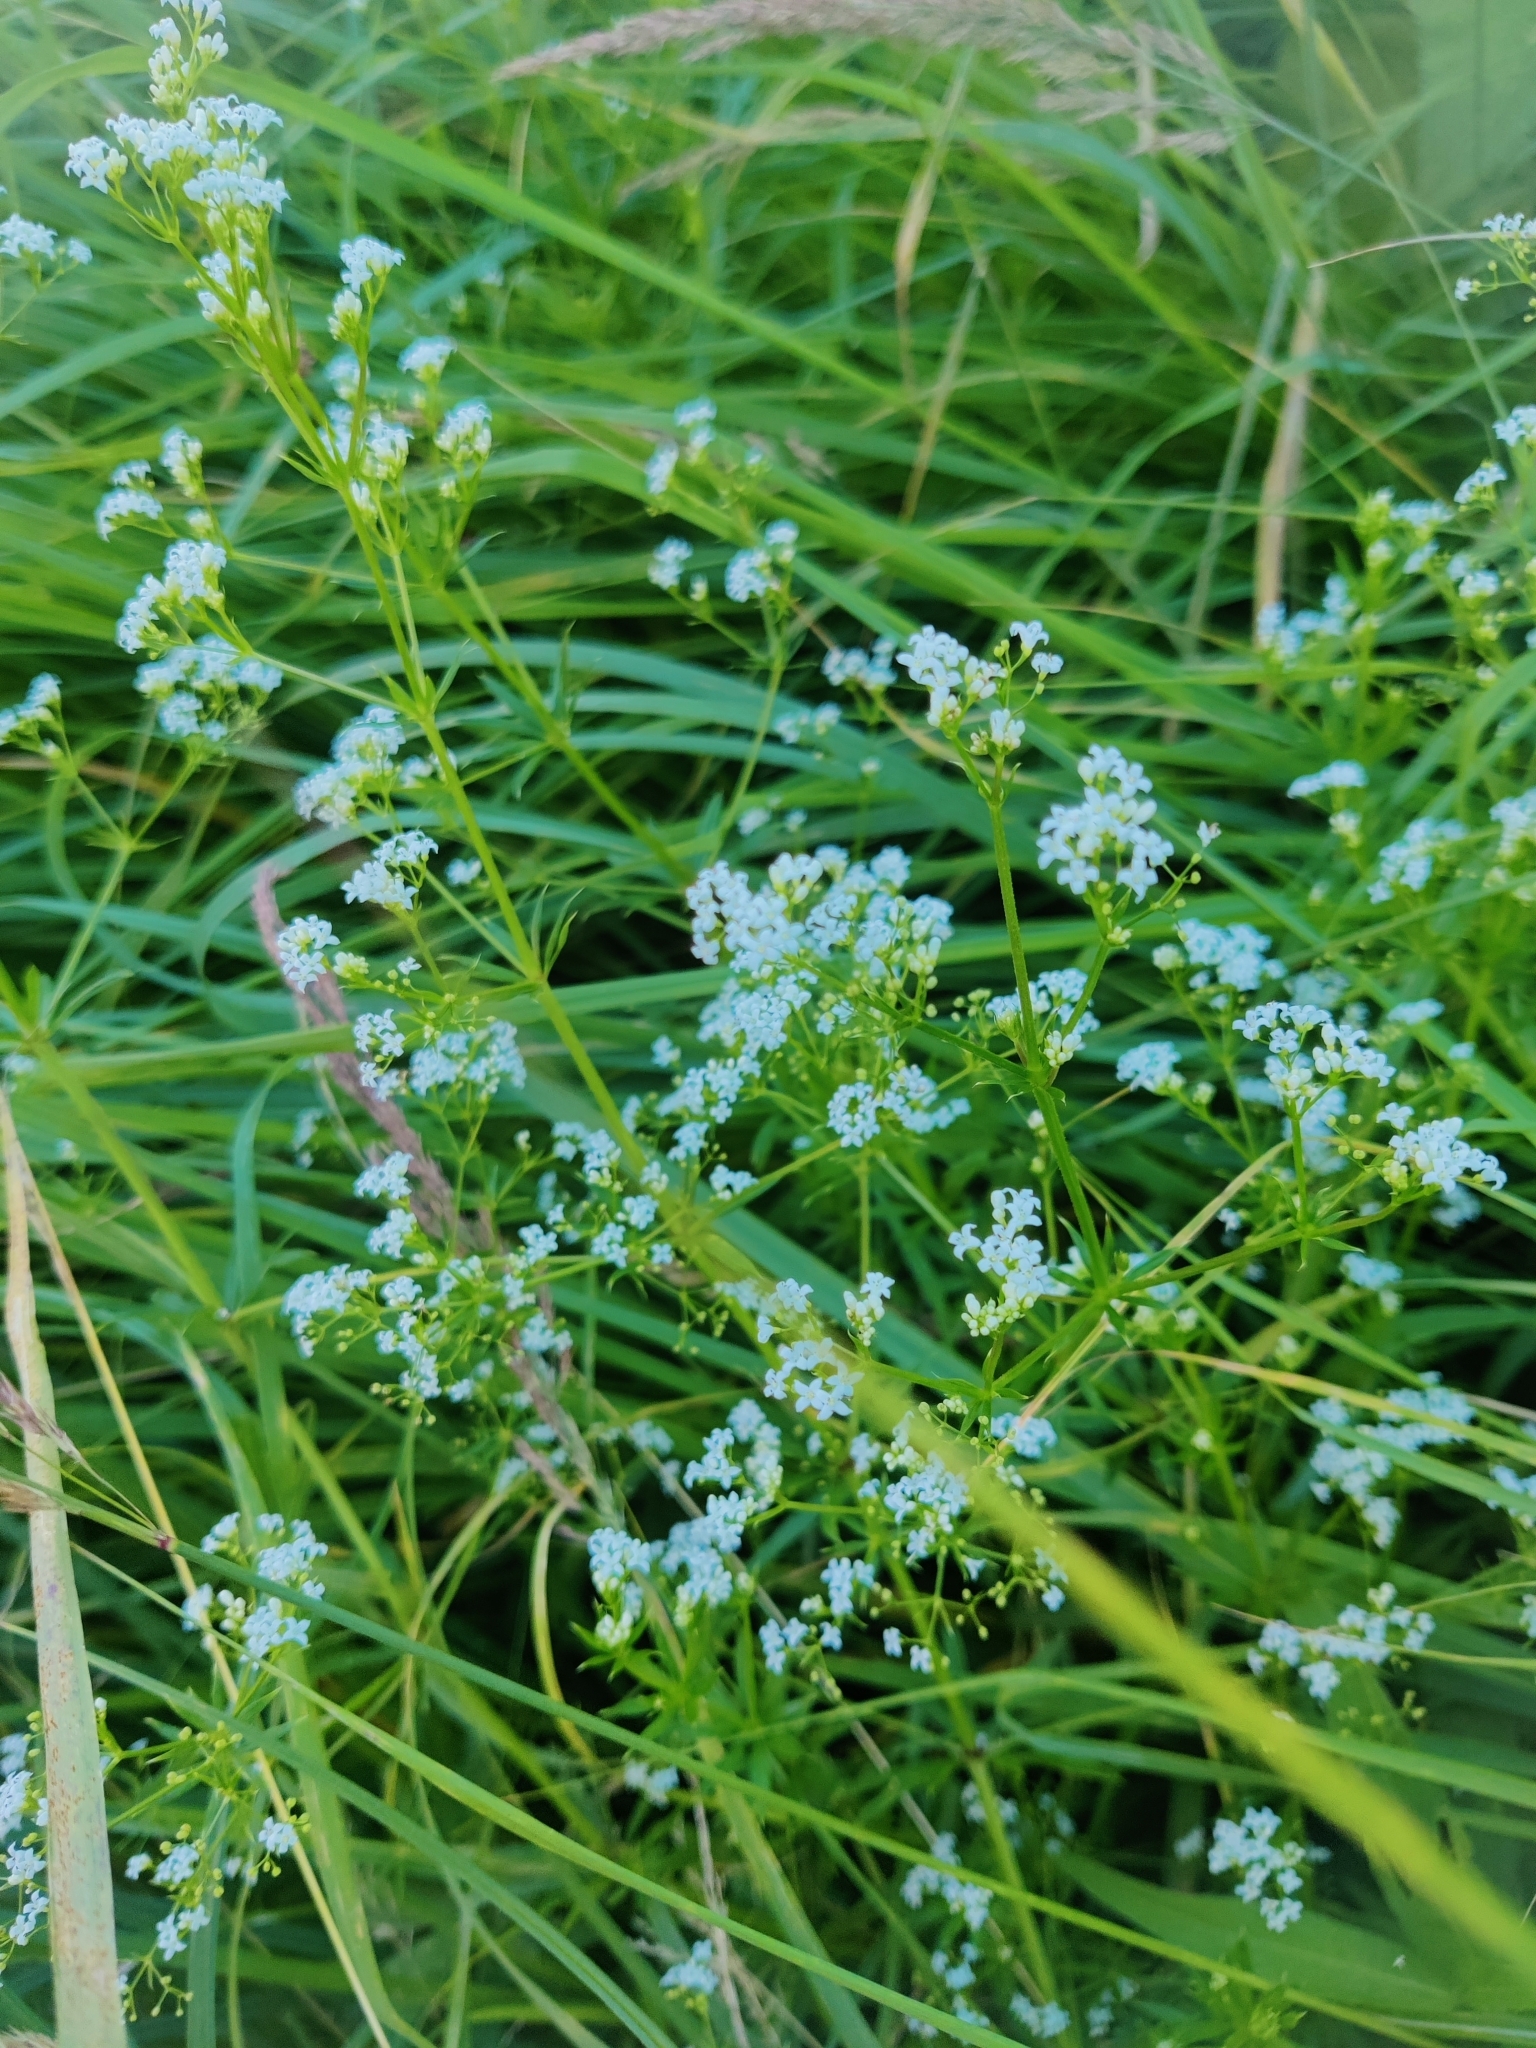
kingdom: Plantae
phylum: Tracheophyta
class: Magnoliopsida
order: Gentianales
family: Rubiaceae
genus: Galium
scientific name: Galium rivale
